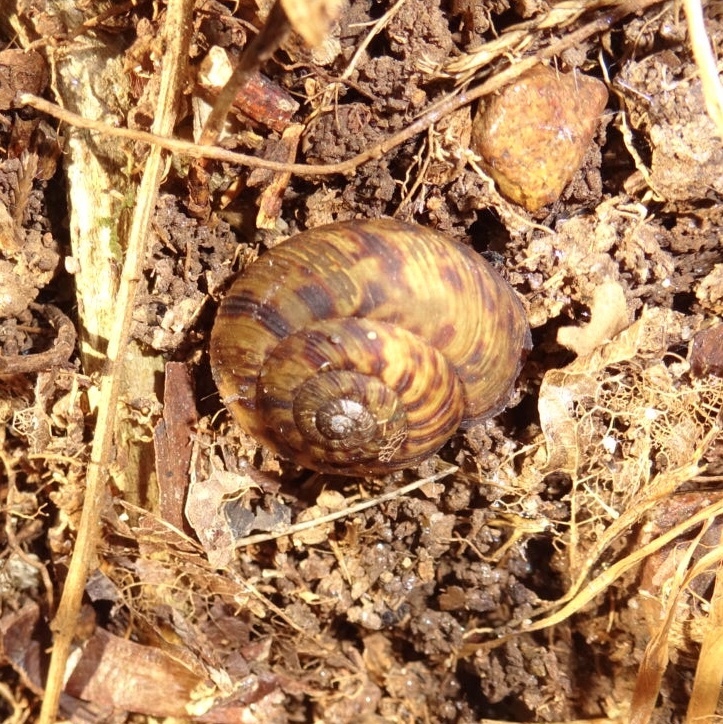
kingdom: Animalia
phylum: Mollusca
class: Gastropoda
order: Stylommatophora
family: Discidae
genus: Anguispira
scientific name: Anguispira alternata
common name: Flamed tigersnail
